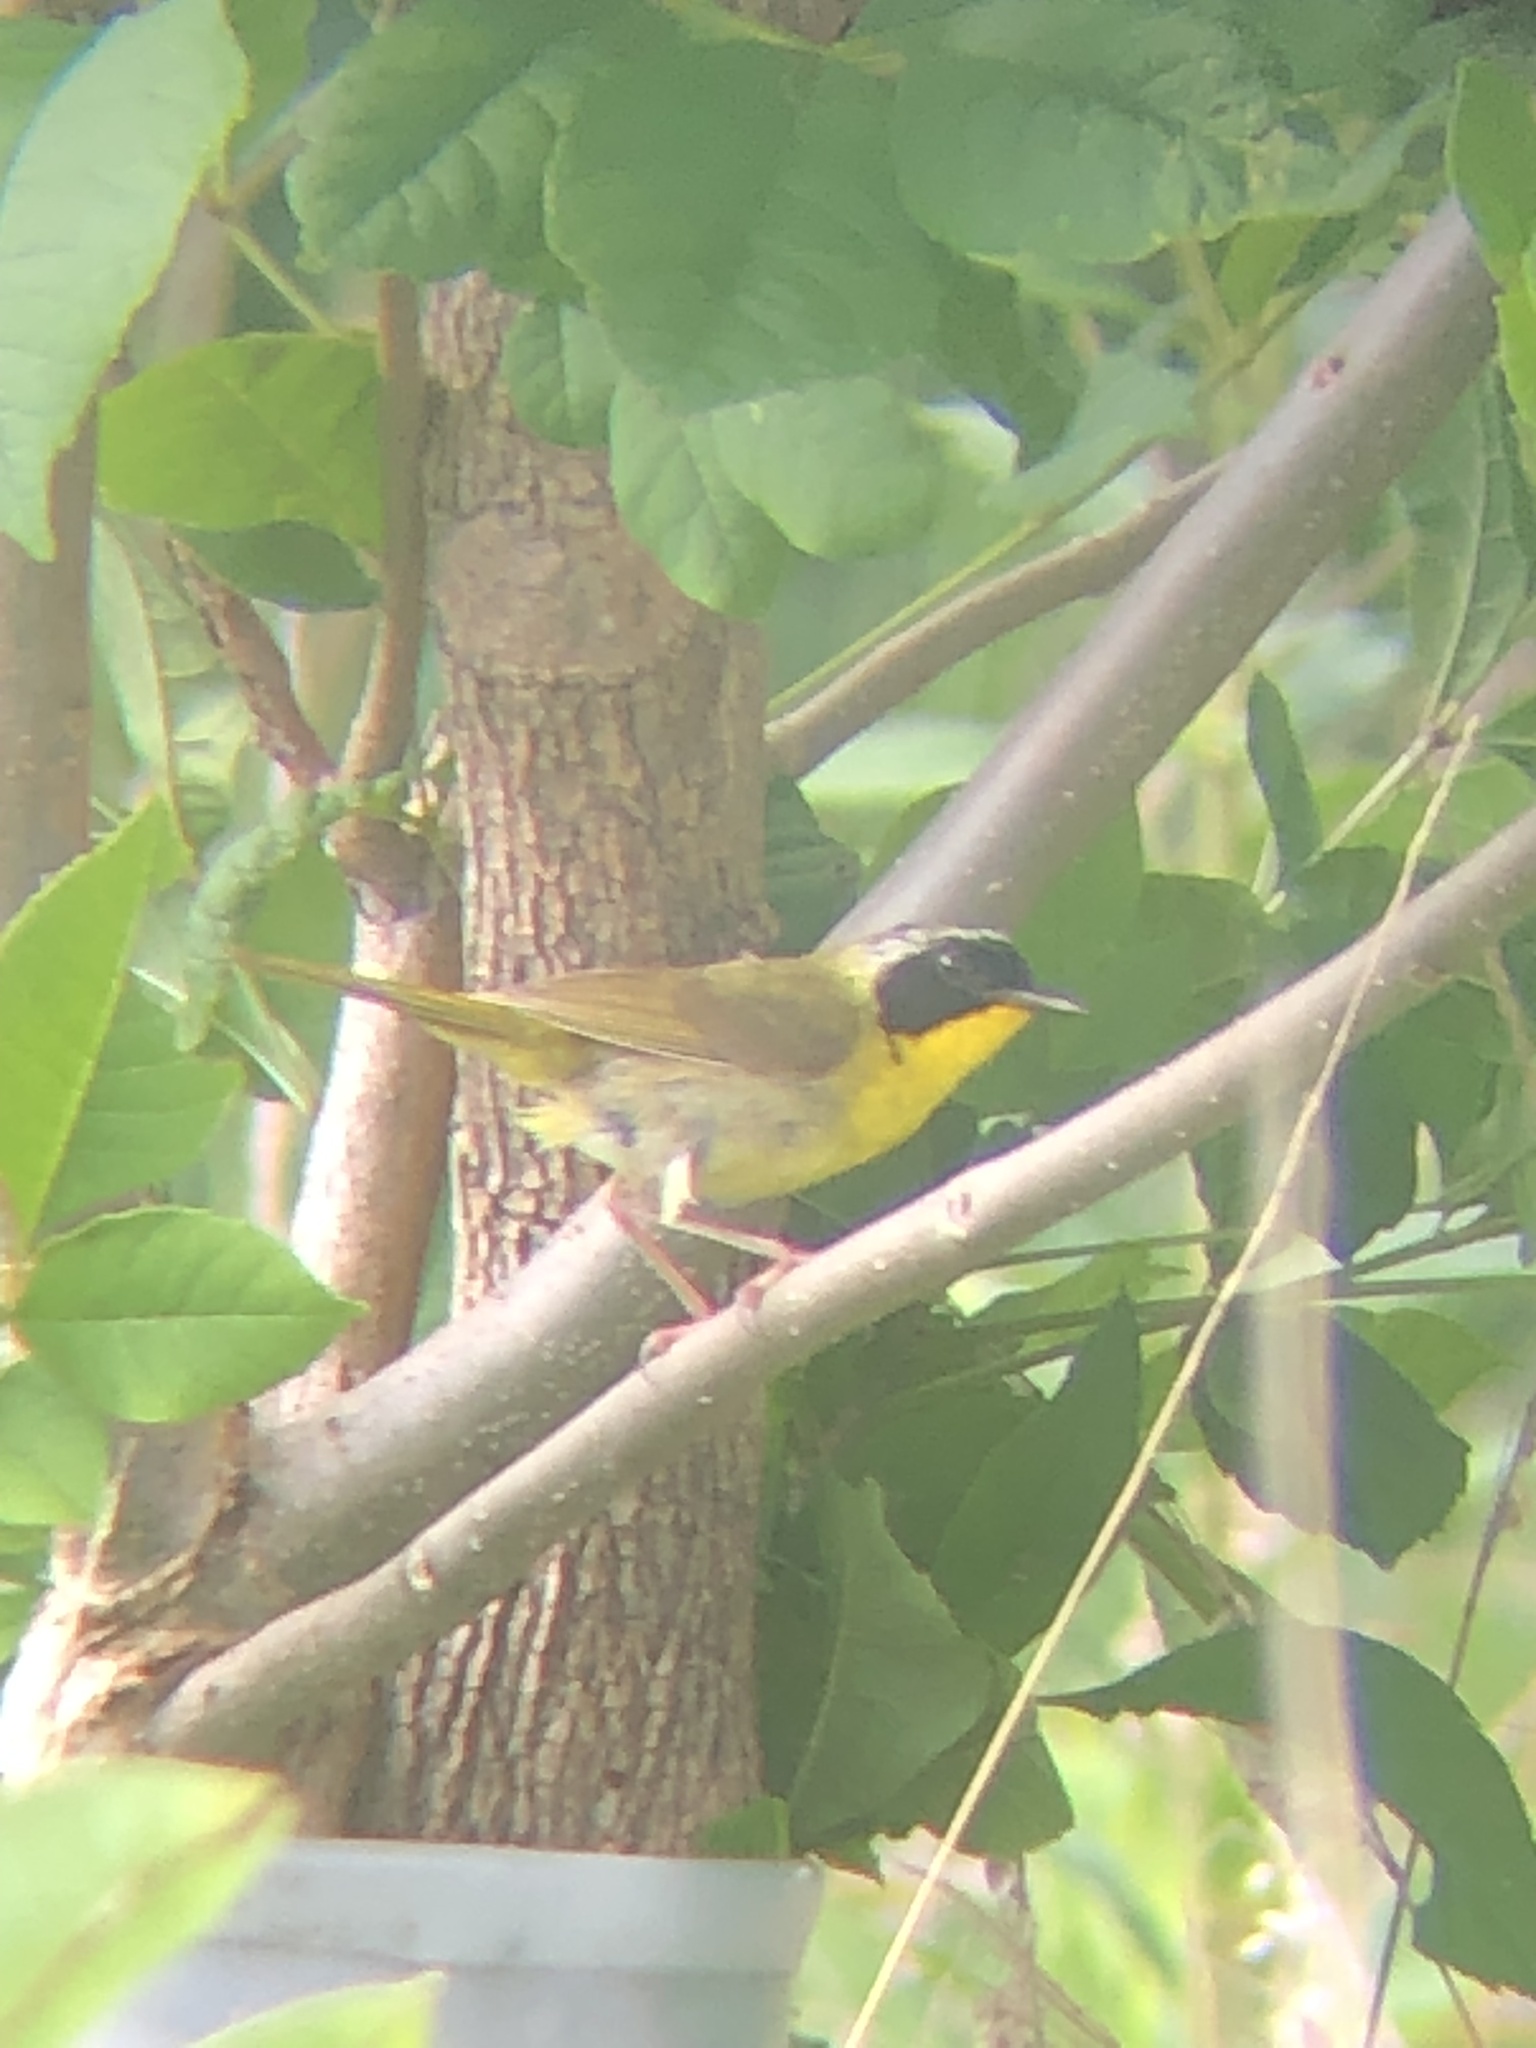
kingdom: Animalia
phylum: Chordata
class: Aves
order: Passeriformes
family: Parulidae
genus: Geothlypis
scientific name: Geothlypis trichas
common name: Common yellowthroat
